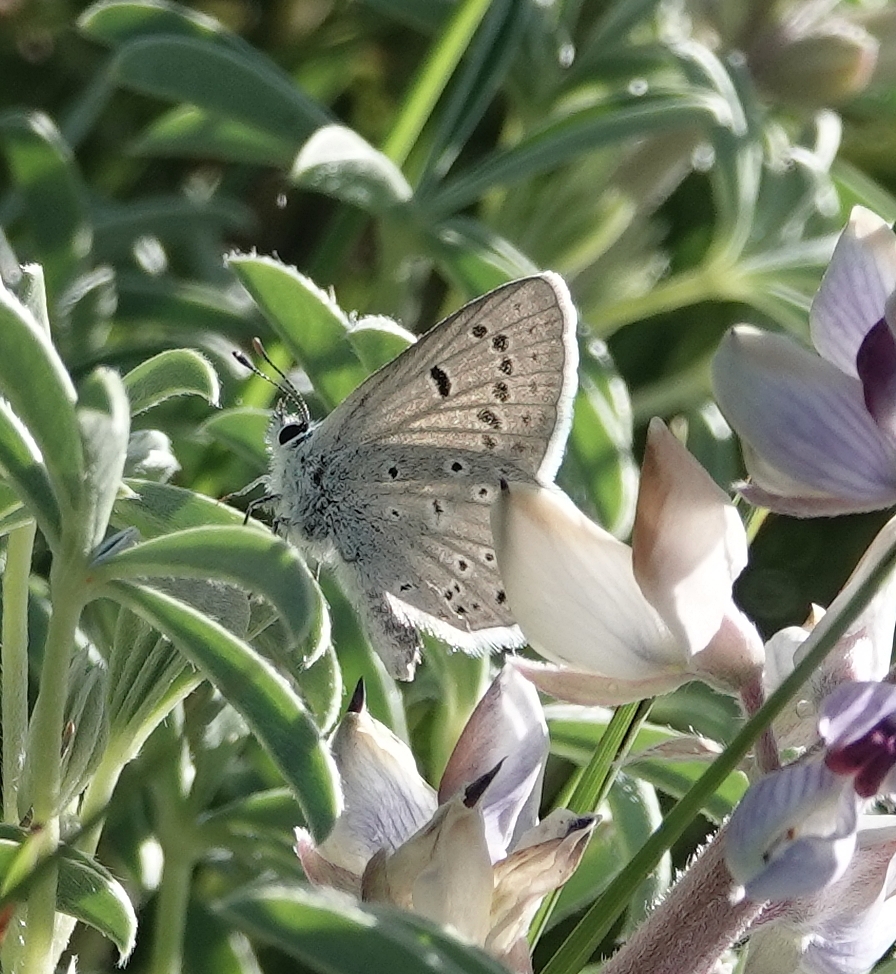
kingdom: Animalia
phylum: Arthropoda
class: Insecta
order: Lepidoptera
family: Lycaenidae
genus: Icaricia
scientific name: Icaricia icarioides
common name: Boisduval's blue
